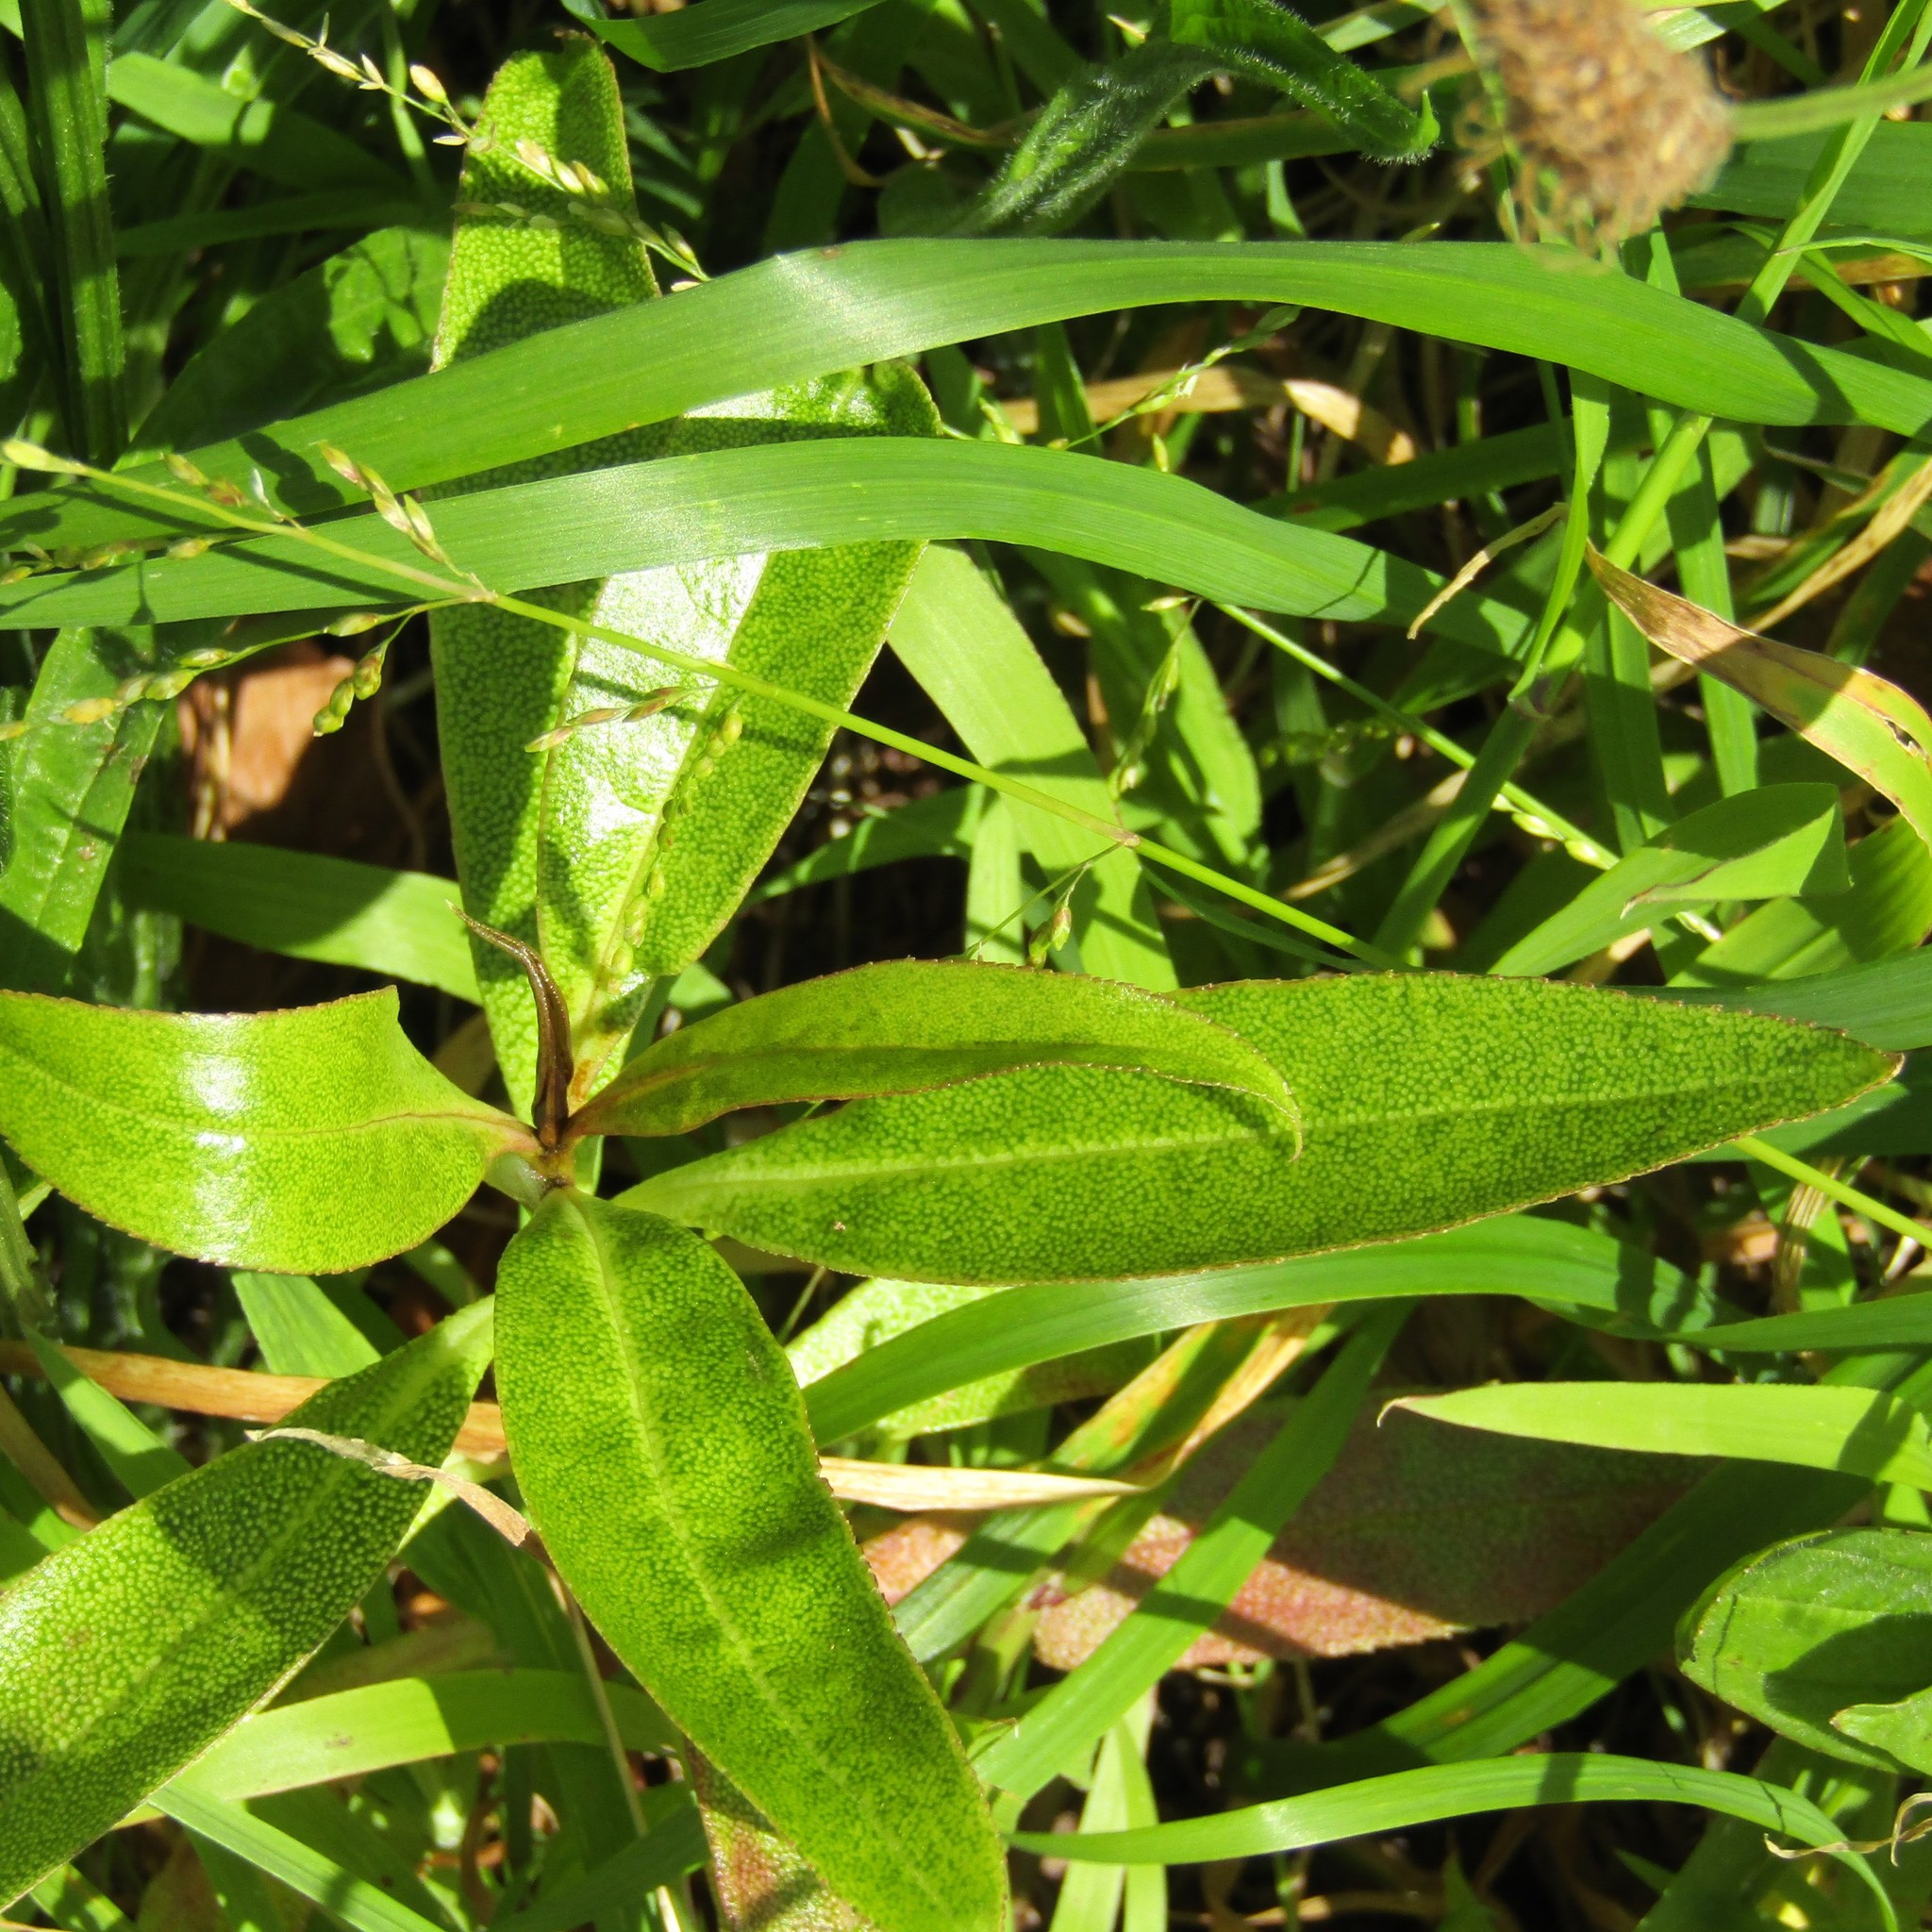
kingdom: Plantae
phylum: Tracheophyta
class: Magnoliopsida
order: Lamiales
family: Scrophulariaceae
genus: Myoporum
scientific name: Myoporum laetum
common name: Ngaio tree
